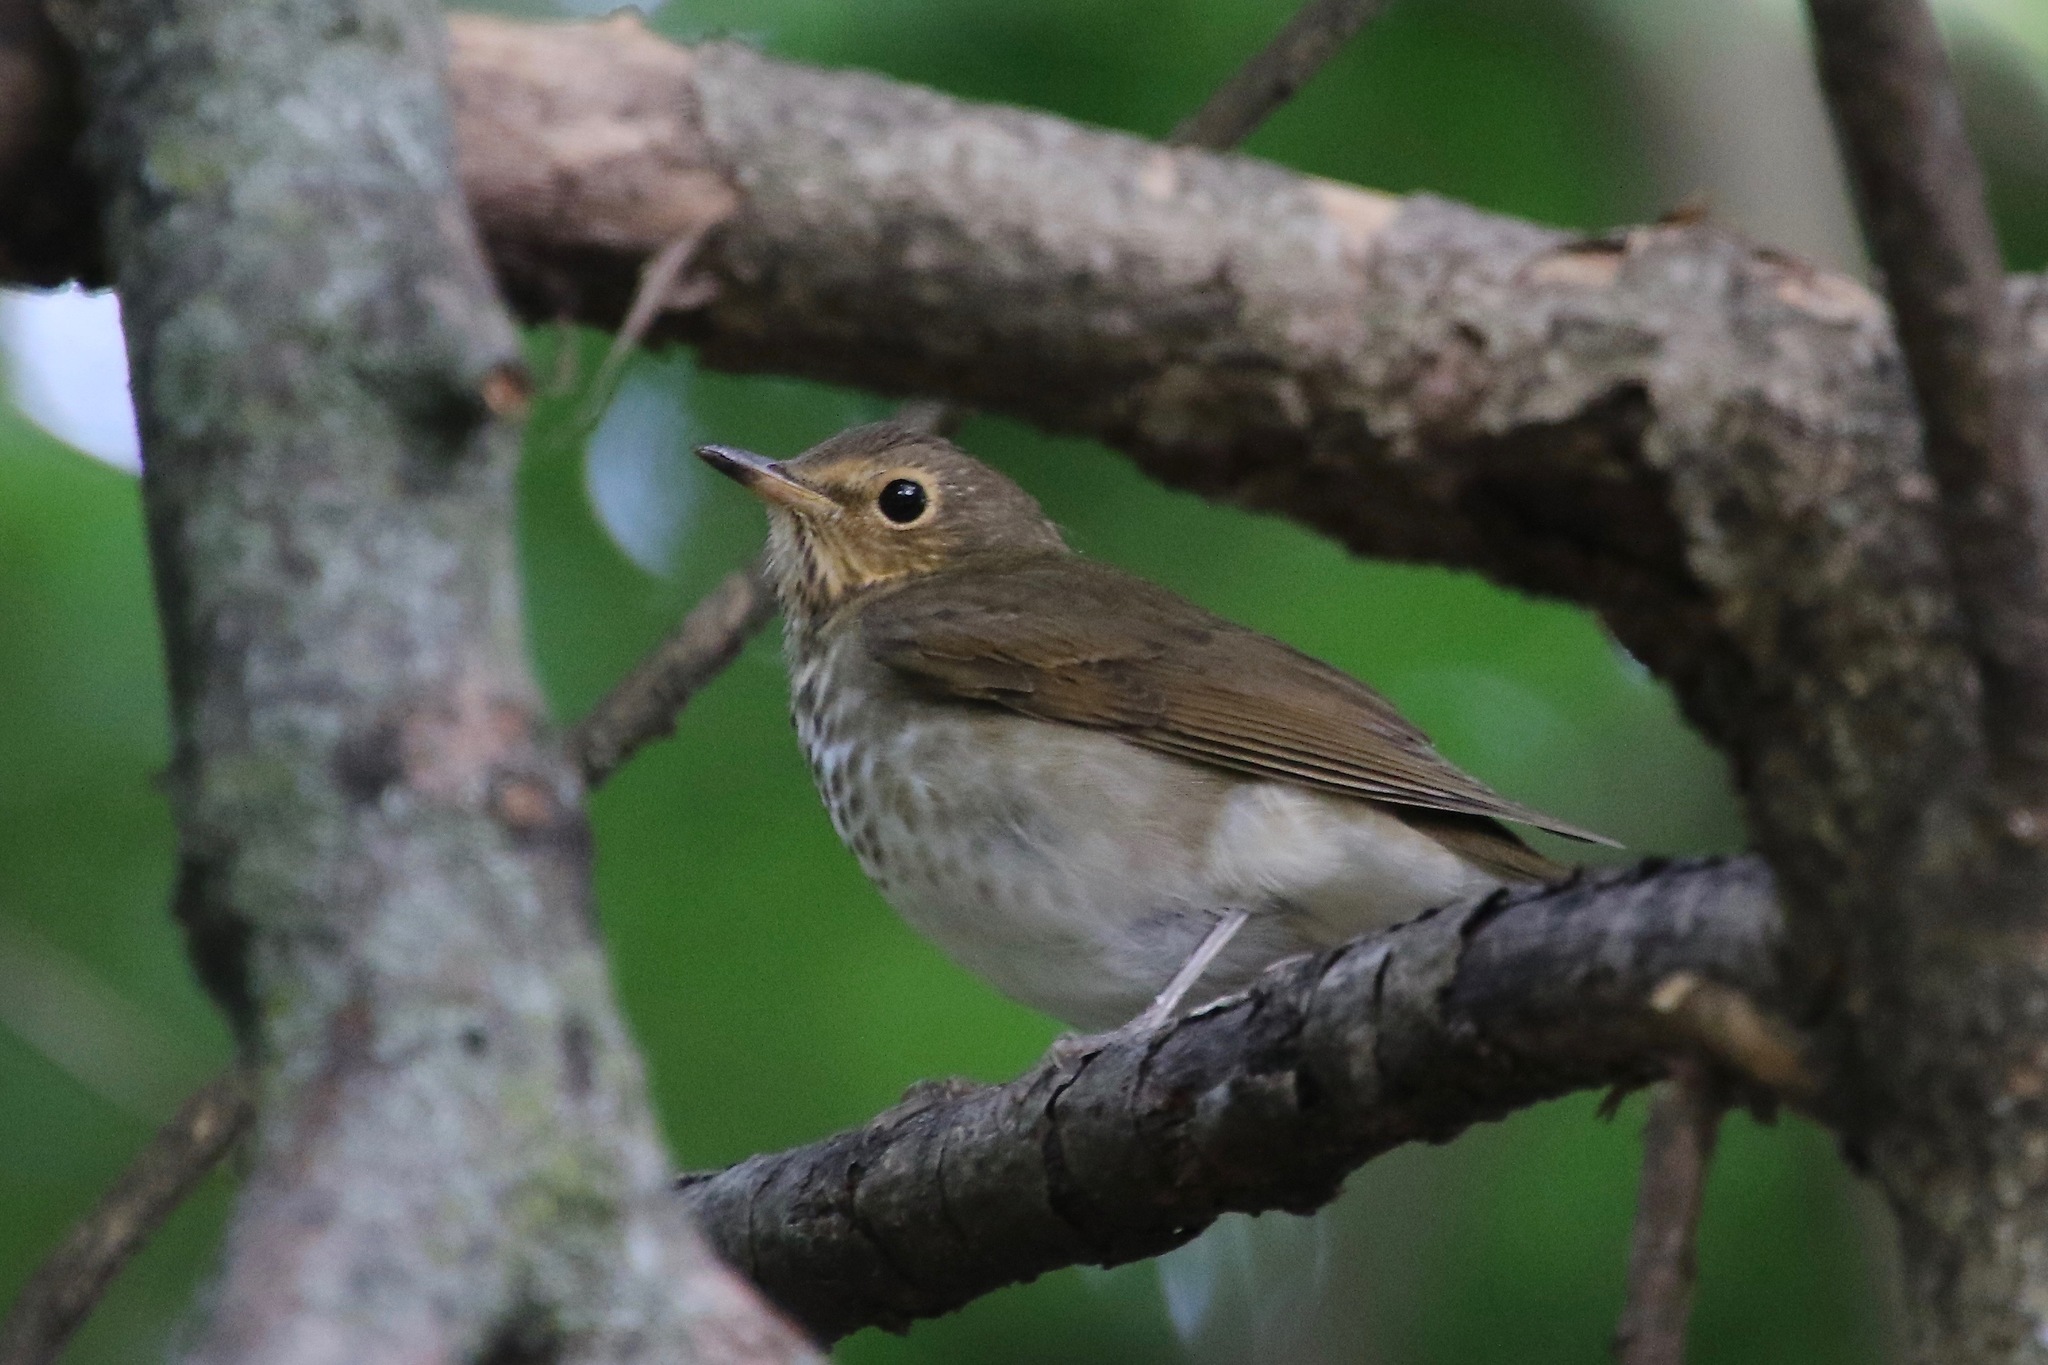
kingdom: Animalia
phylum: Chordata
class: Aves
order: Passeriformes
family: Turdidae
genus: Catharus
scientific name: Catharus ustulatus
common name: Swainson's thrush
